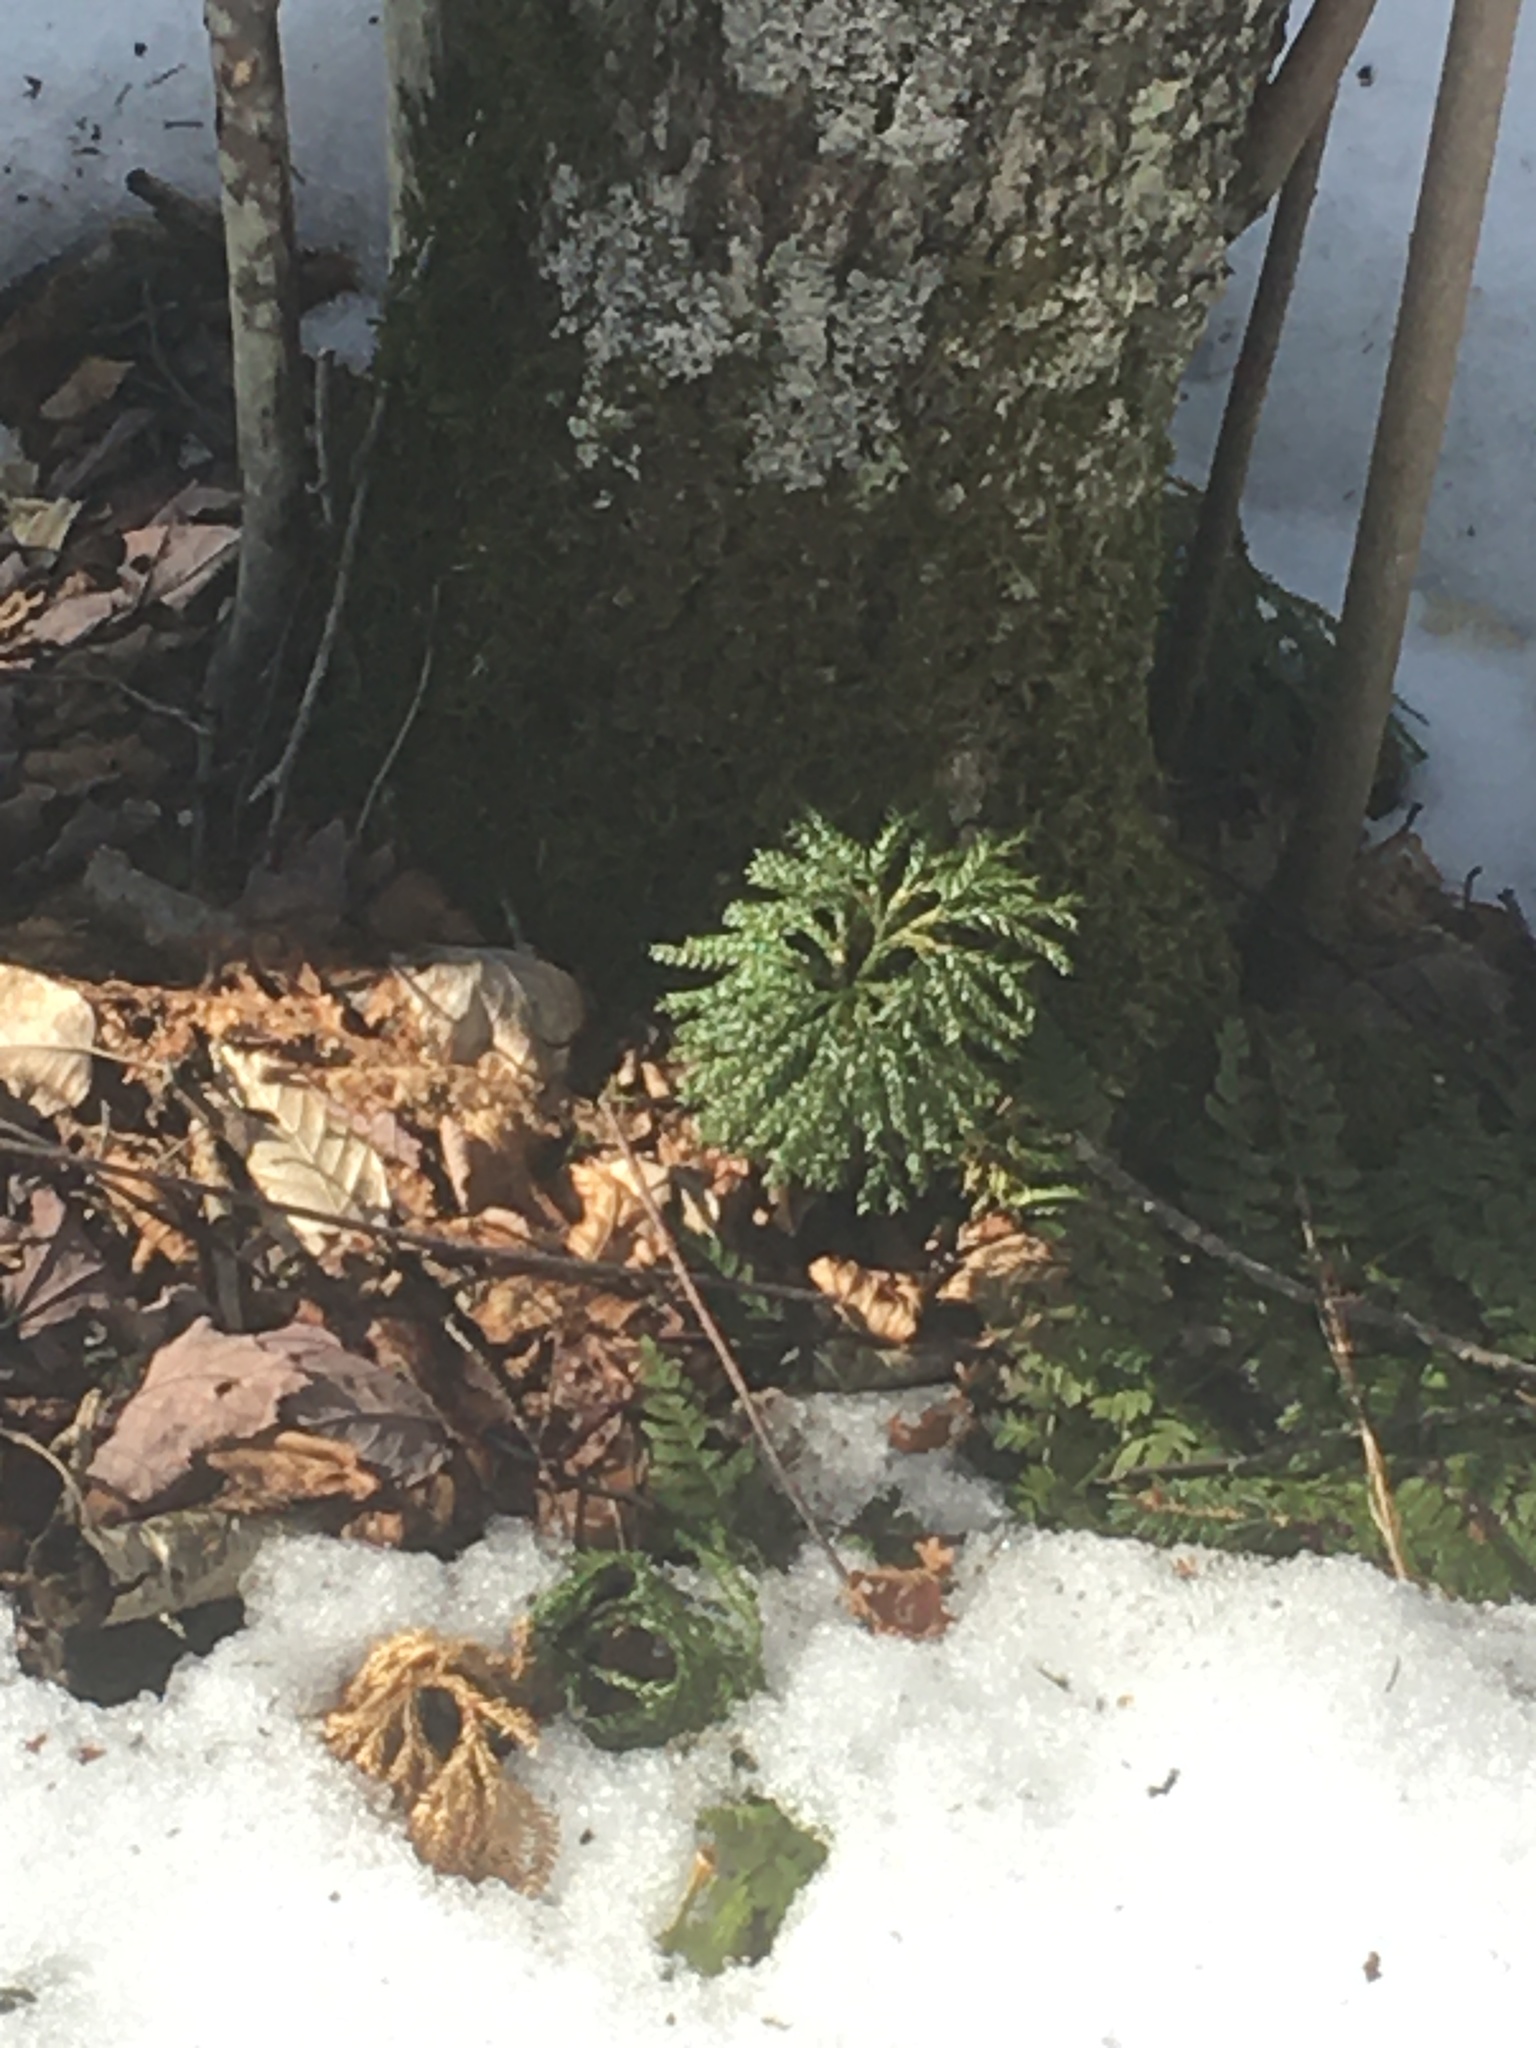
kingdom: Plantae
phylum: Tracheophyta
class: Lycopodiopsida
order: Lycopodiales
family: Lycopodiaceae
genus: Dendrolycopodium
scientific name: Dendrolycopodium
